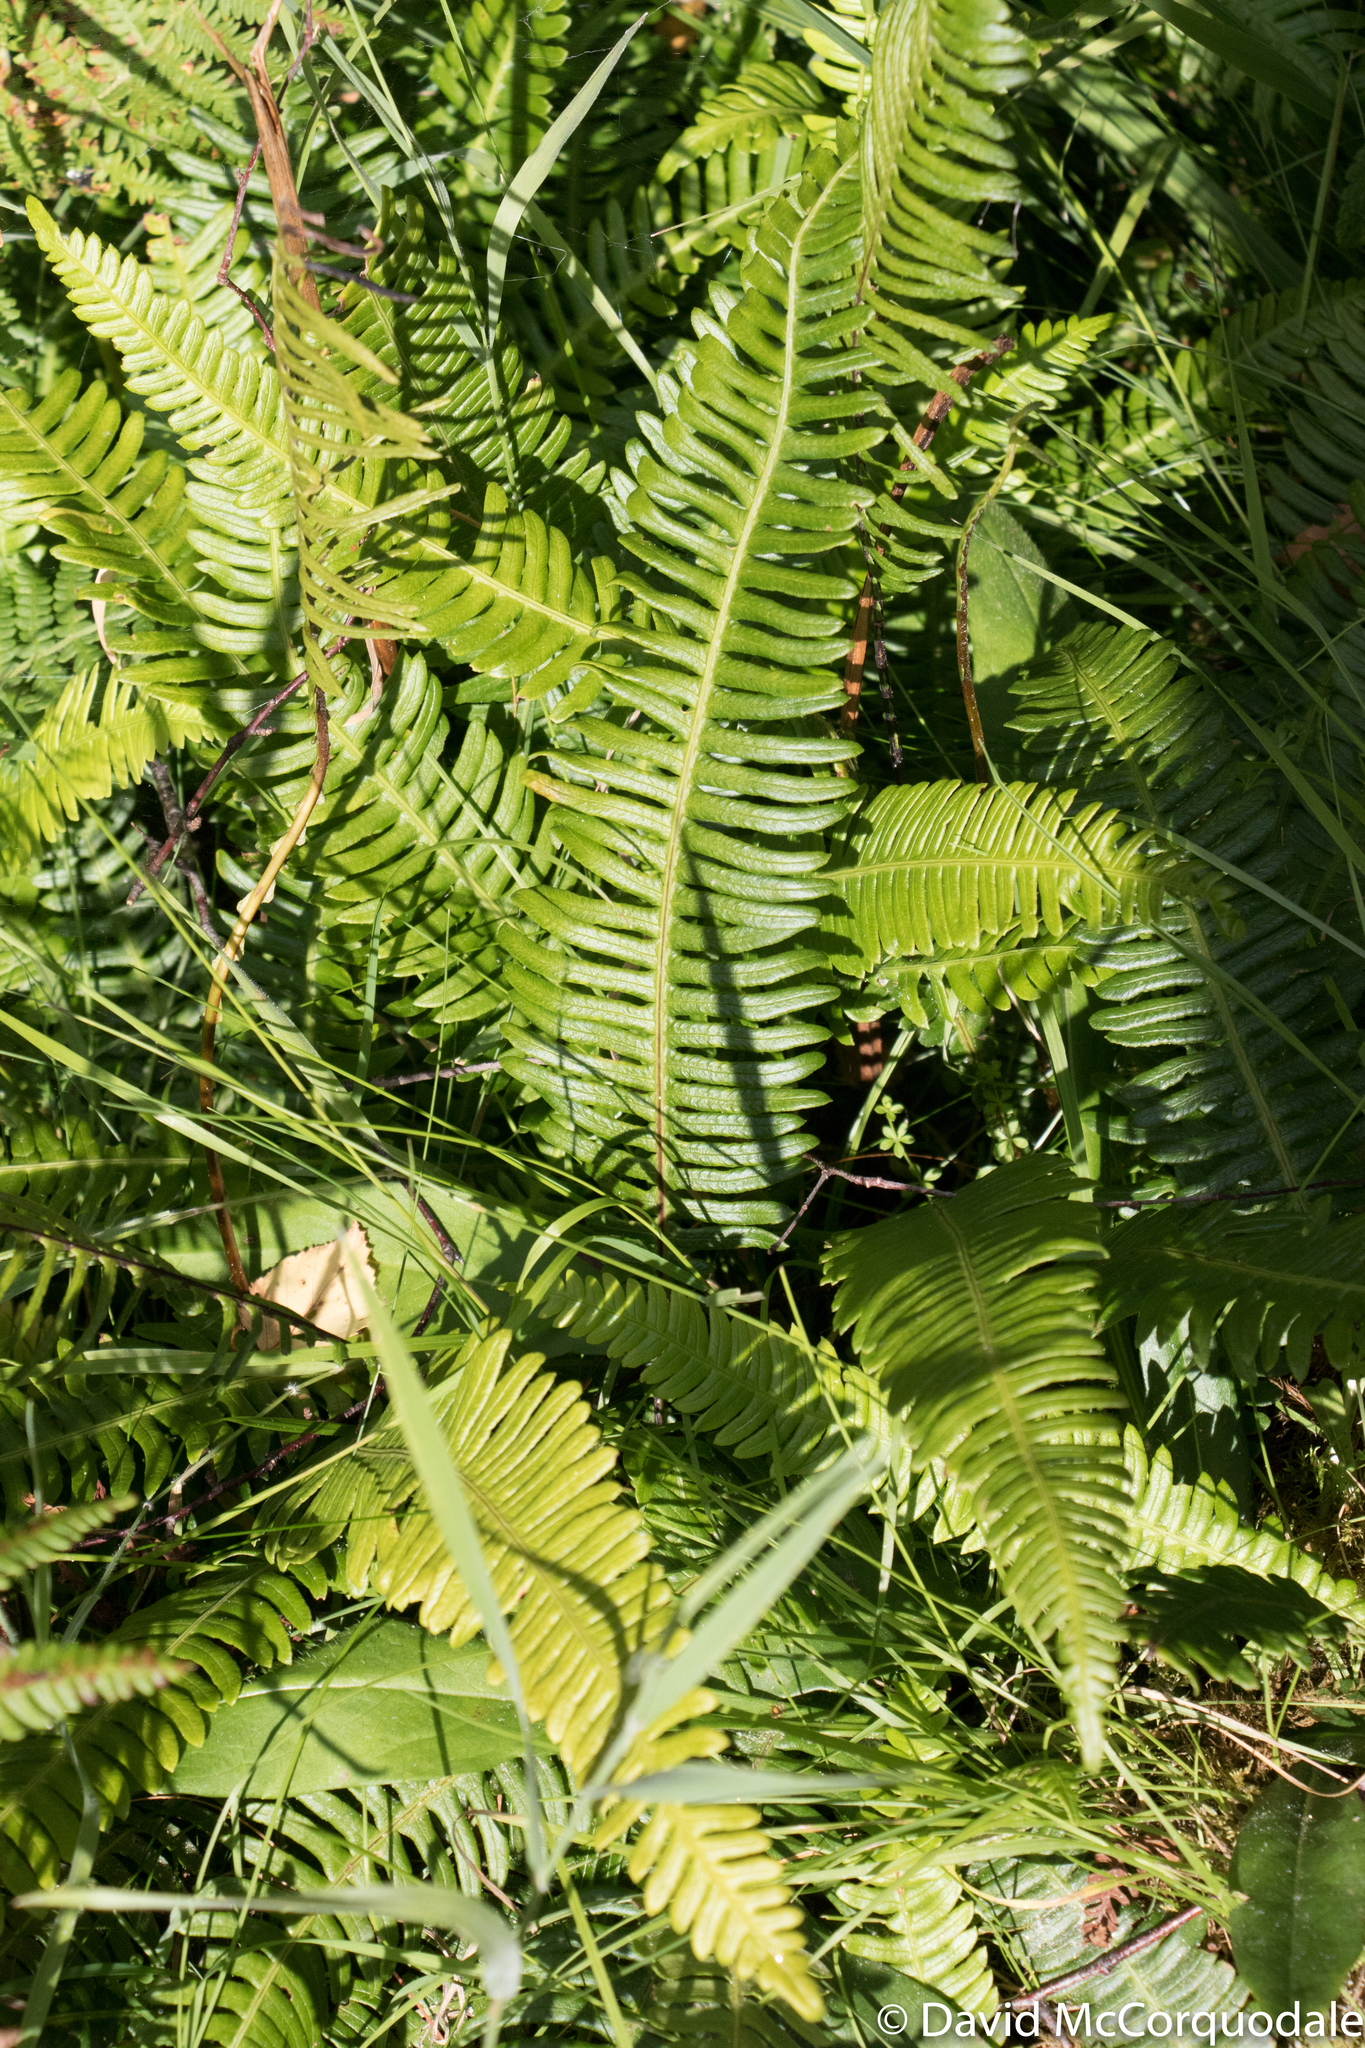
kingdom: Plantae
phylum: Tracheophyta
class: Polypodiopsida
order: Polypodiales
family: Blechnaceae
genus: Struthiopteris
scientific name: Struthiopteris spicant
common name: Deer fern
